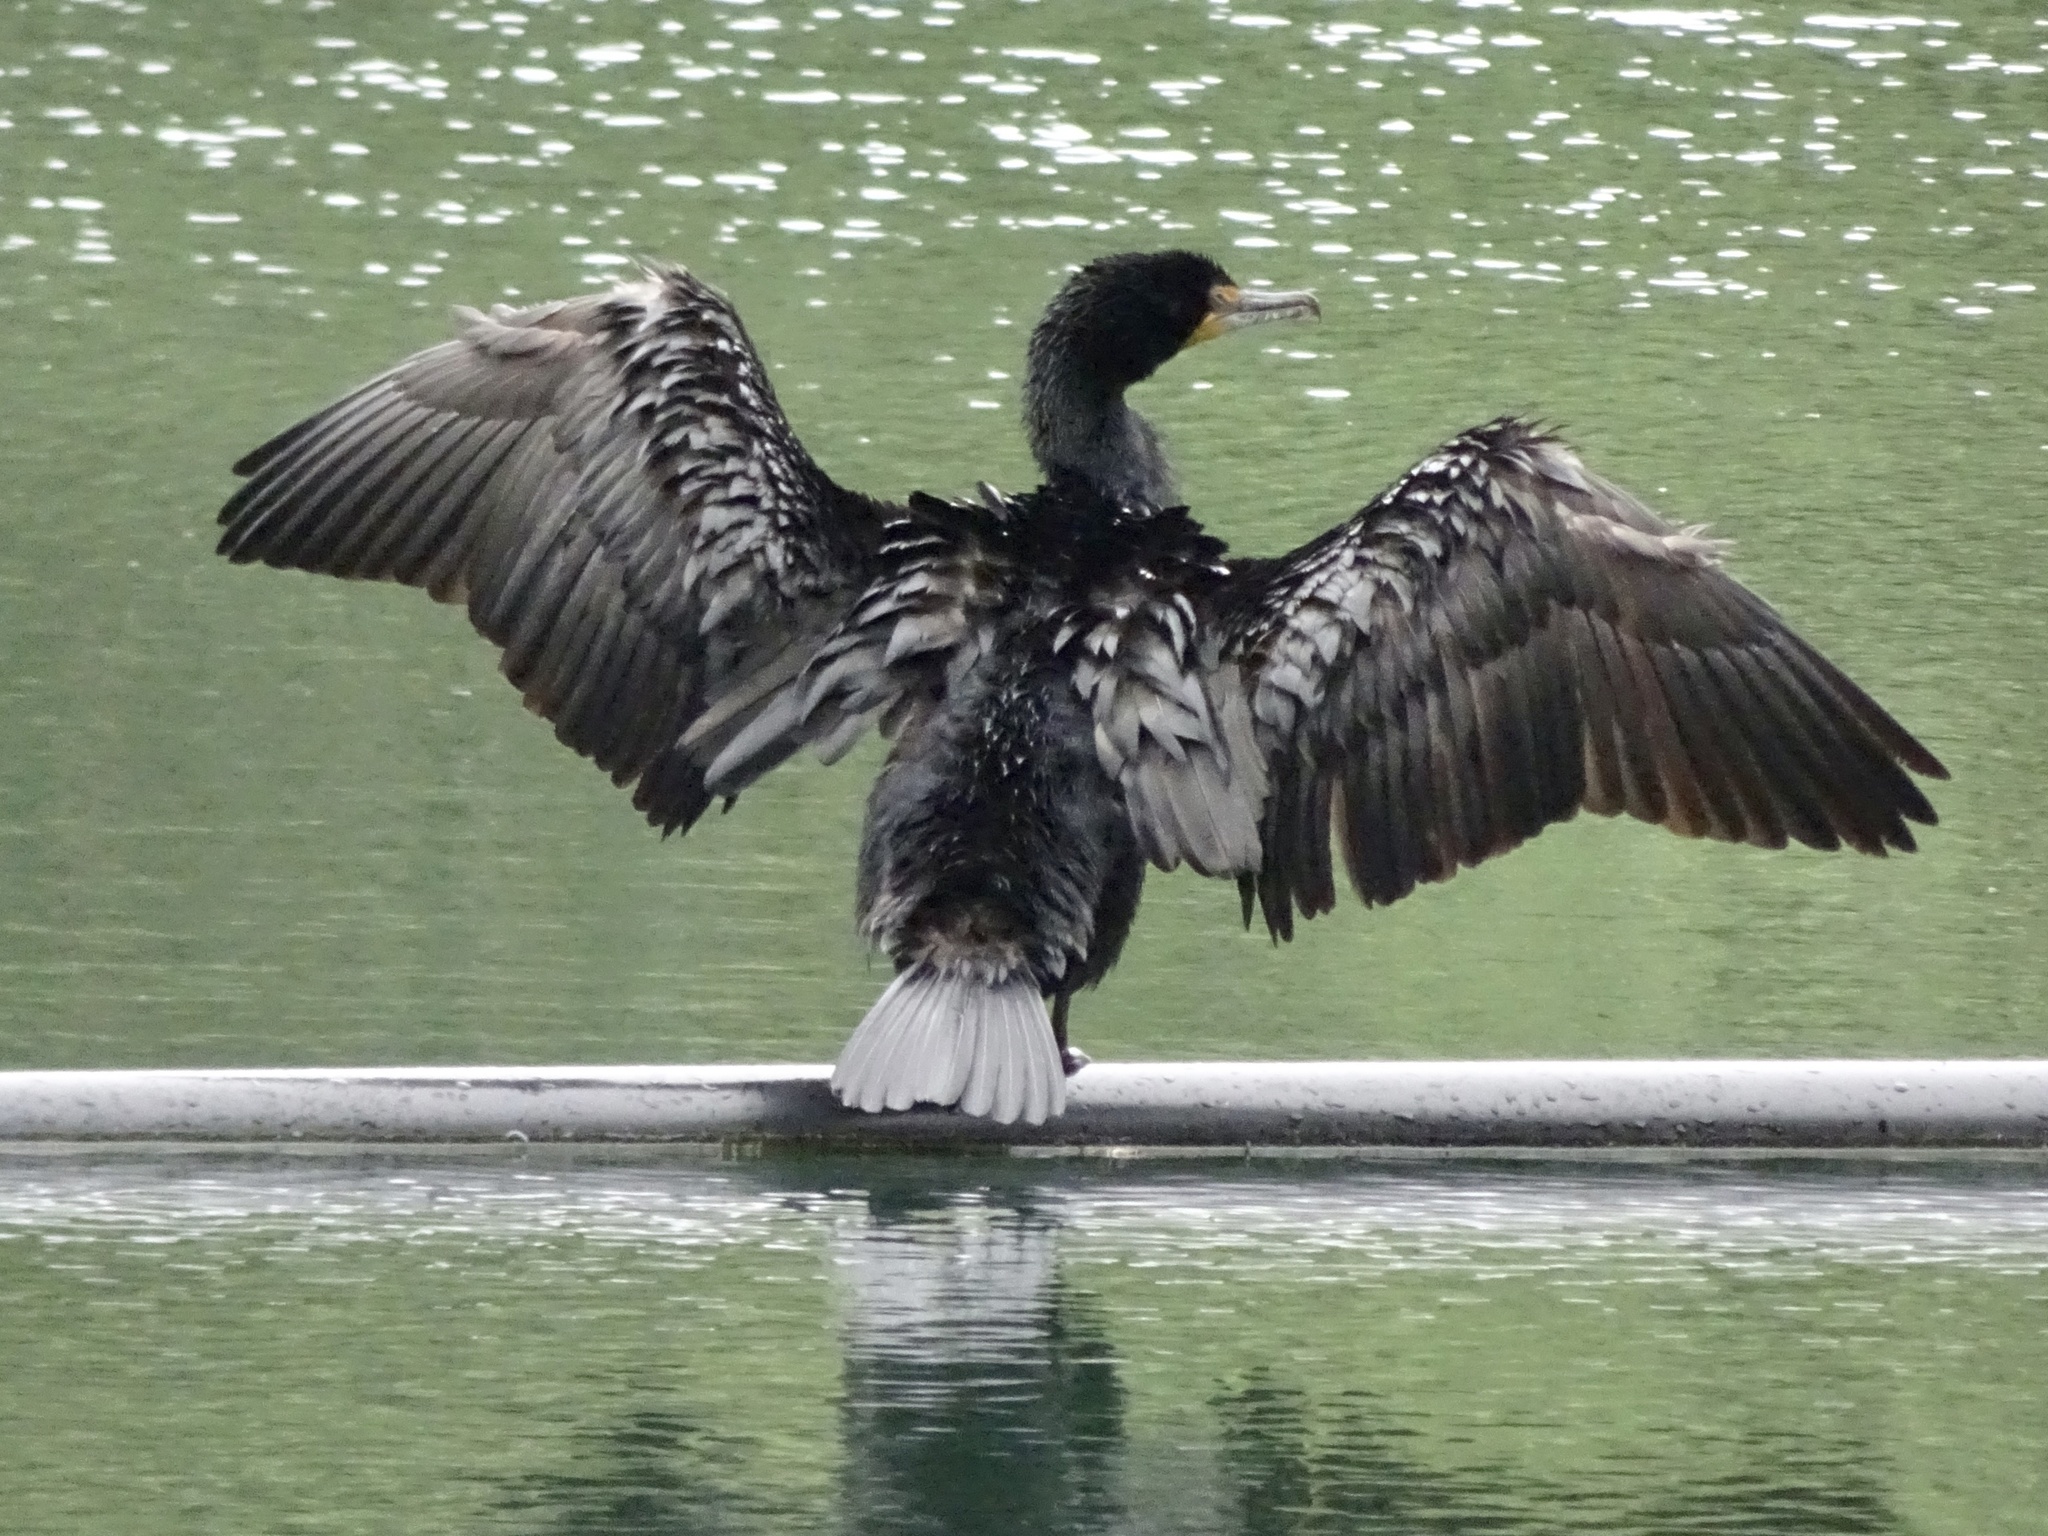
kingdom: Animalia
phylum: Chordata
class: Aves
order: Suliformes
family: Phalacrocoracidae
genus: Phalacrocorax
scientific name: Phalacrocorax auritus
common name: Double-crested cormorant
